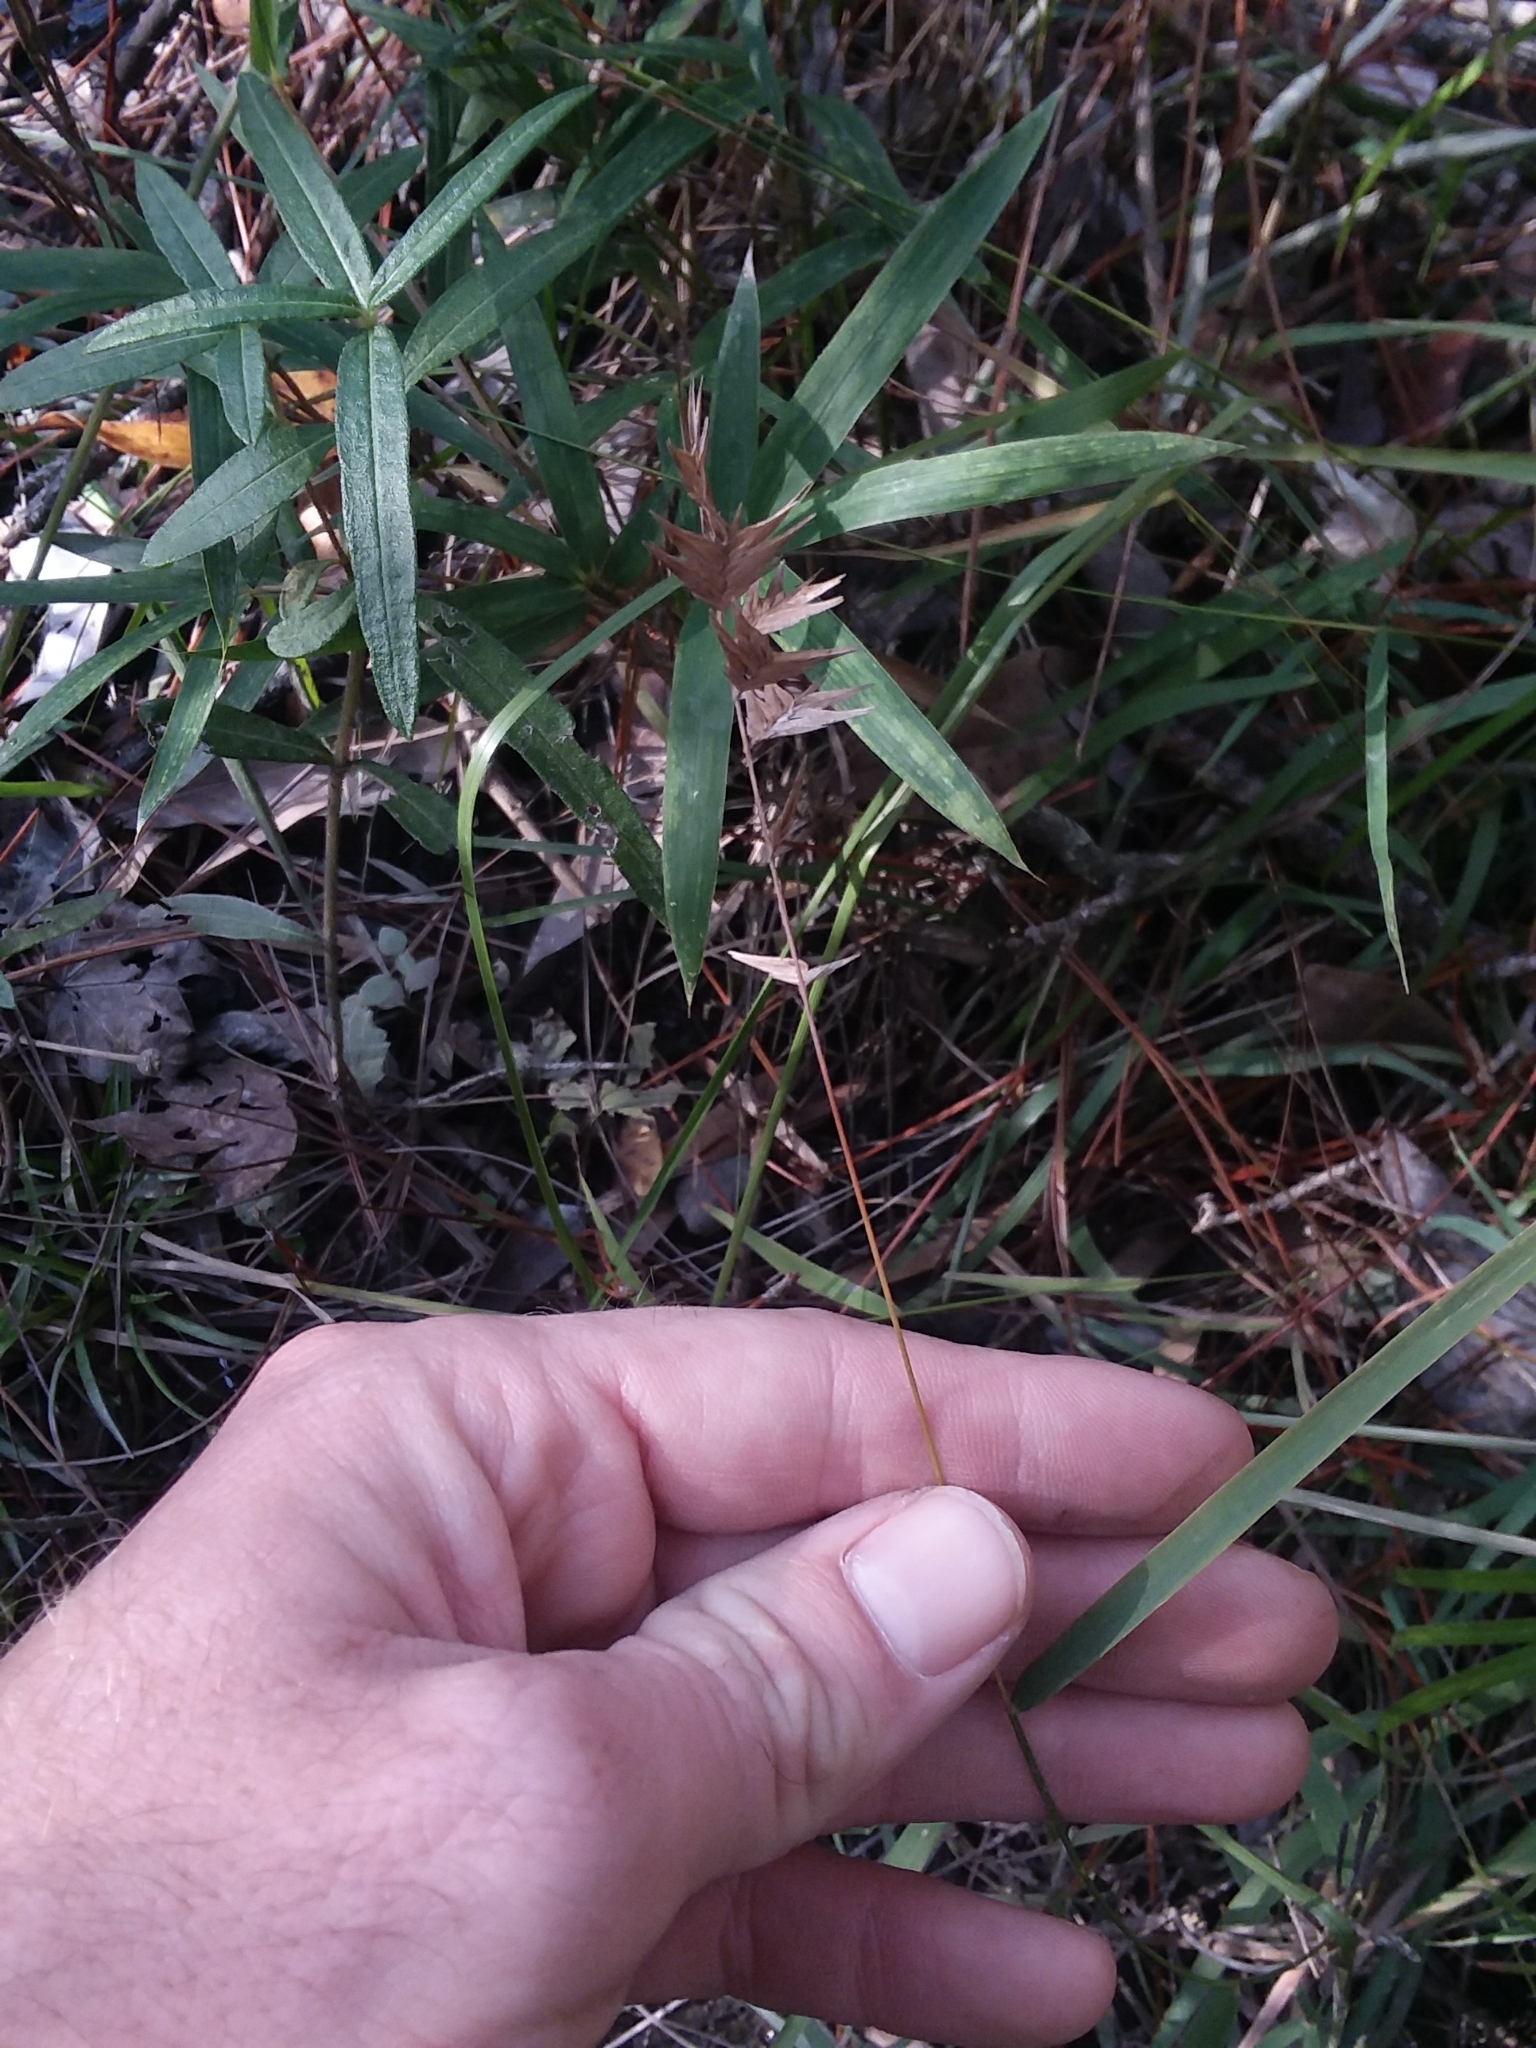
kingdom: Plantae
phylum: Tracheophyta
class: Liliopsida
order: Poales
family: Poaceae
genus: Chasmanthium
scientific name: Chasmanthium ornithorhynchum
